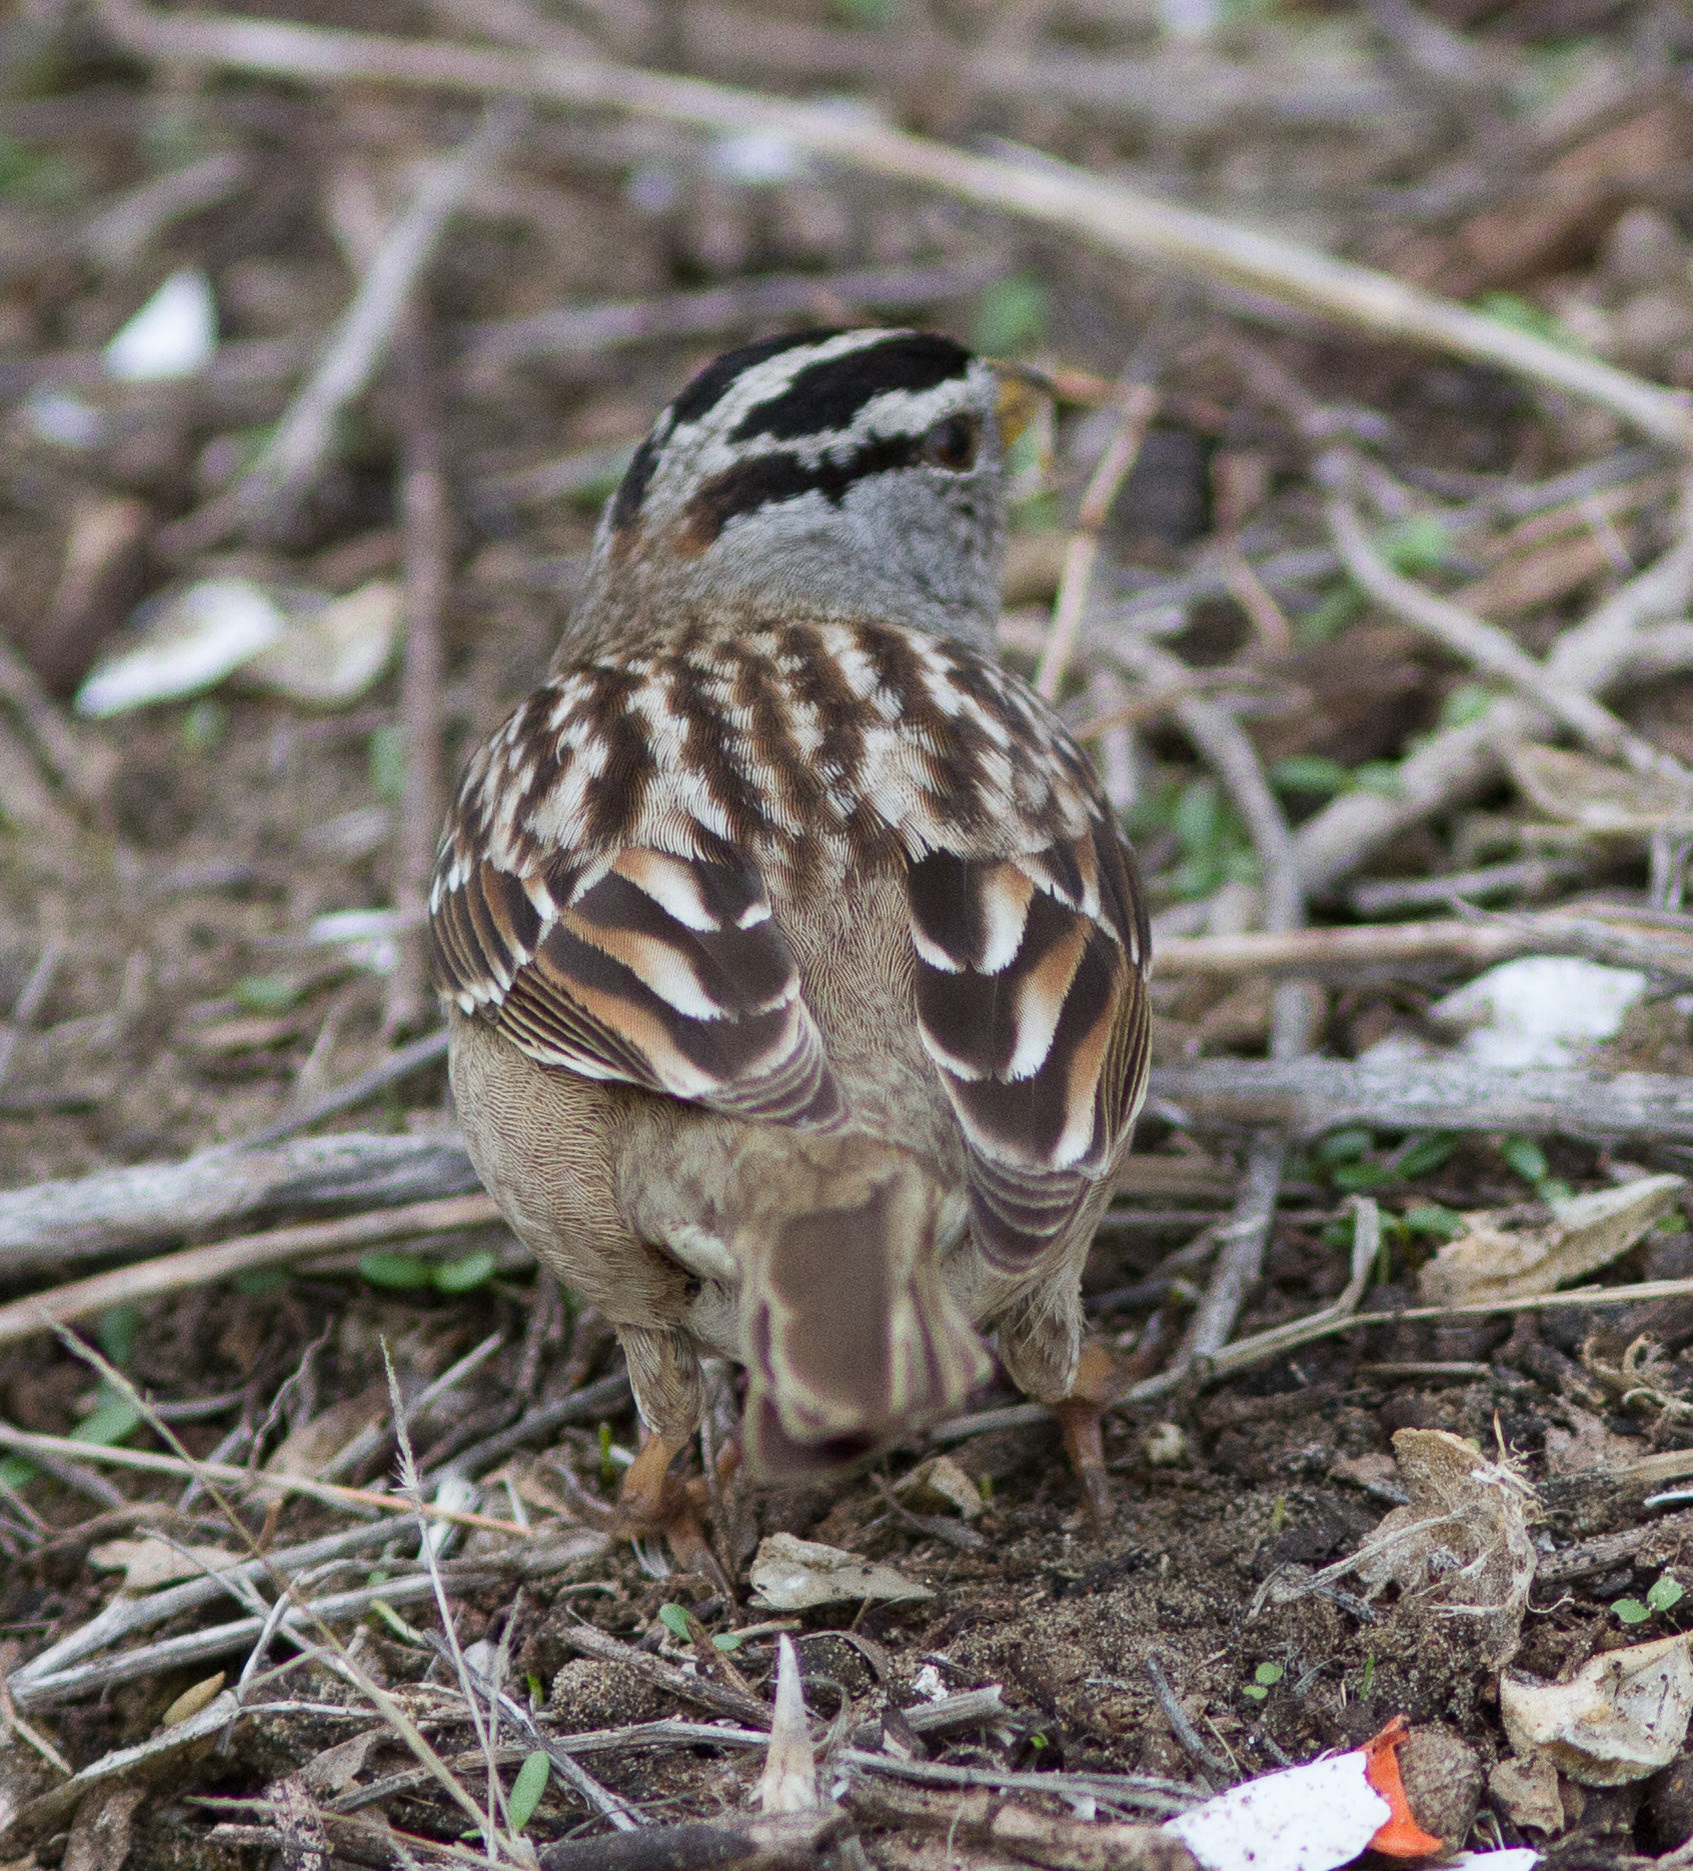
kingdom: Animalia
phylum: Chordata
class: Aves
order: Passeriformes
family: Passerellidae
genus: Zonotrichia
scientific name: Zonotrichia leucophrys
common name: White-crowned sparrow
